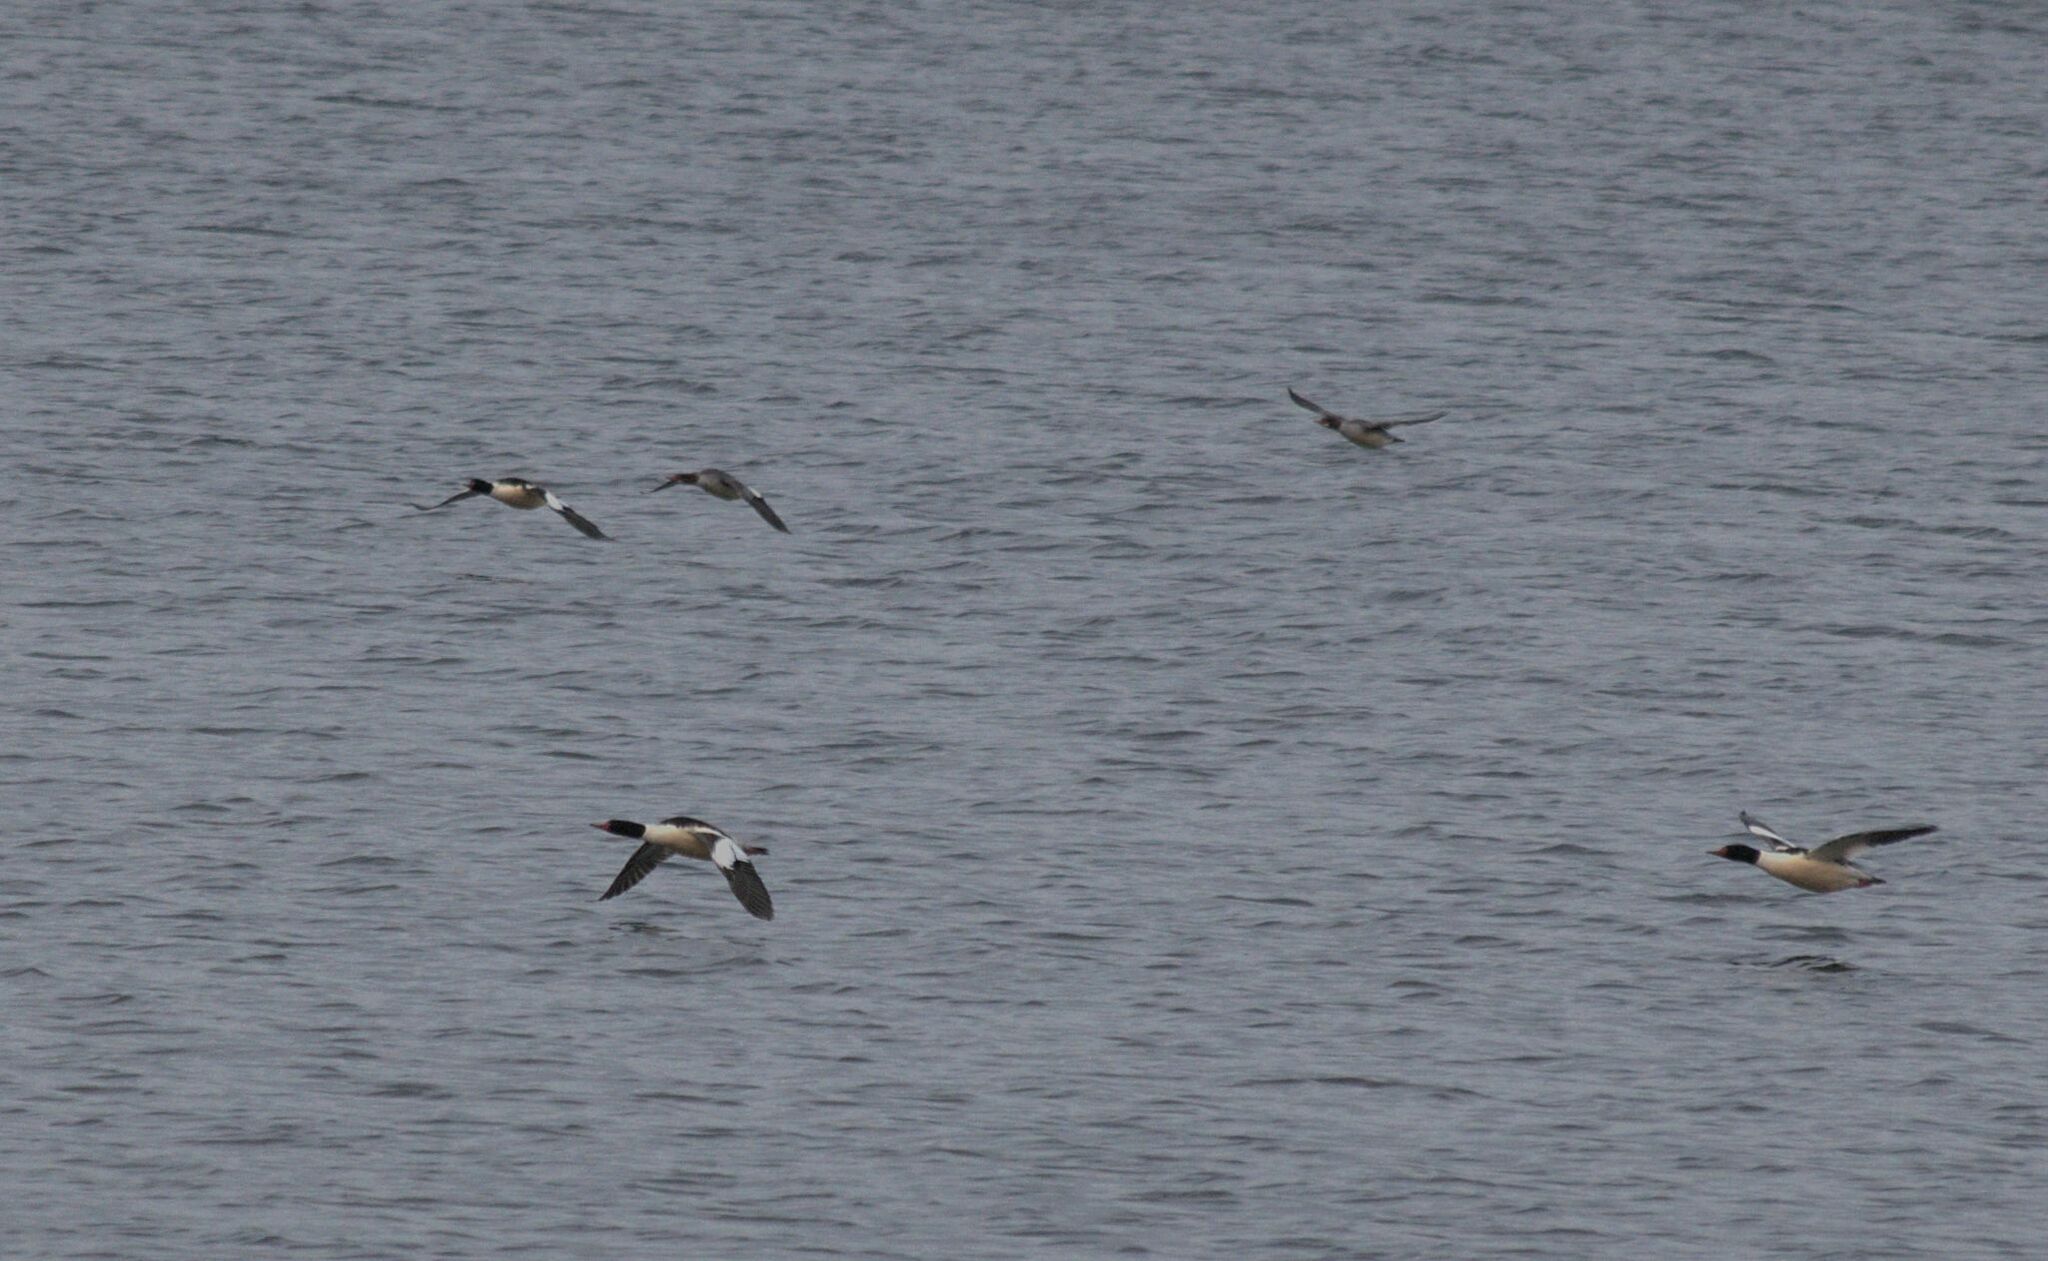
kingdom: Animalia
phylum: Chordata
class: Aves
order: Anseriformes
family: Anatidae
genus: Mergus
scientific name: Mergus merganser
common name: Common merganser
